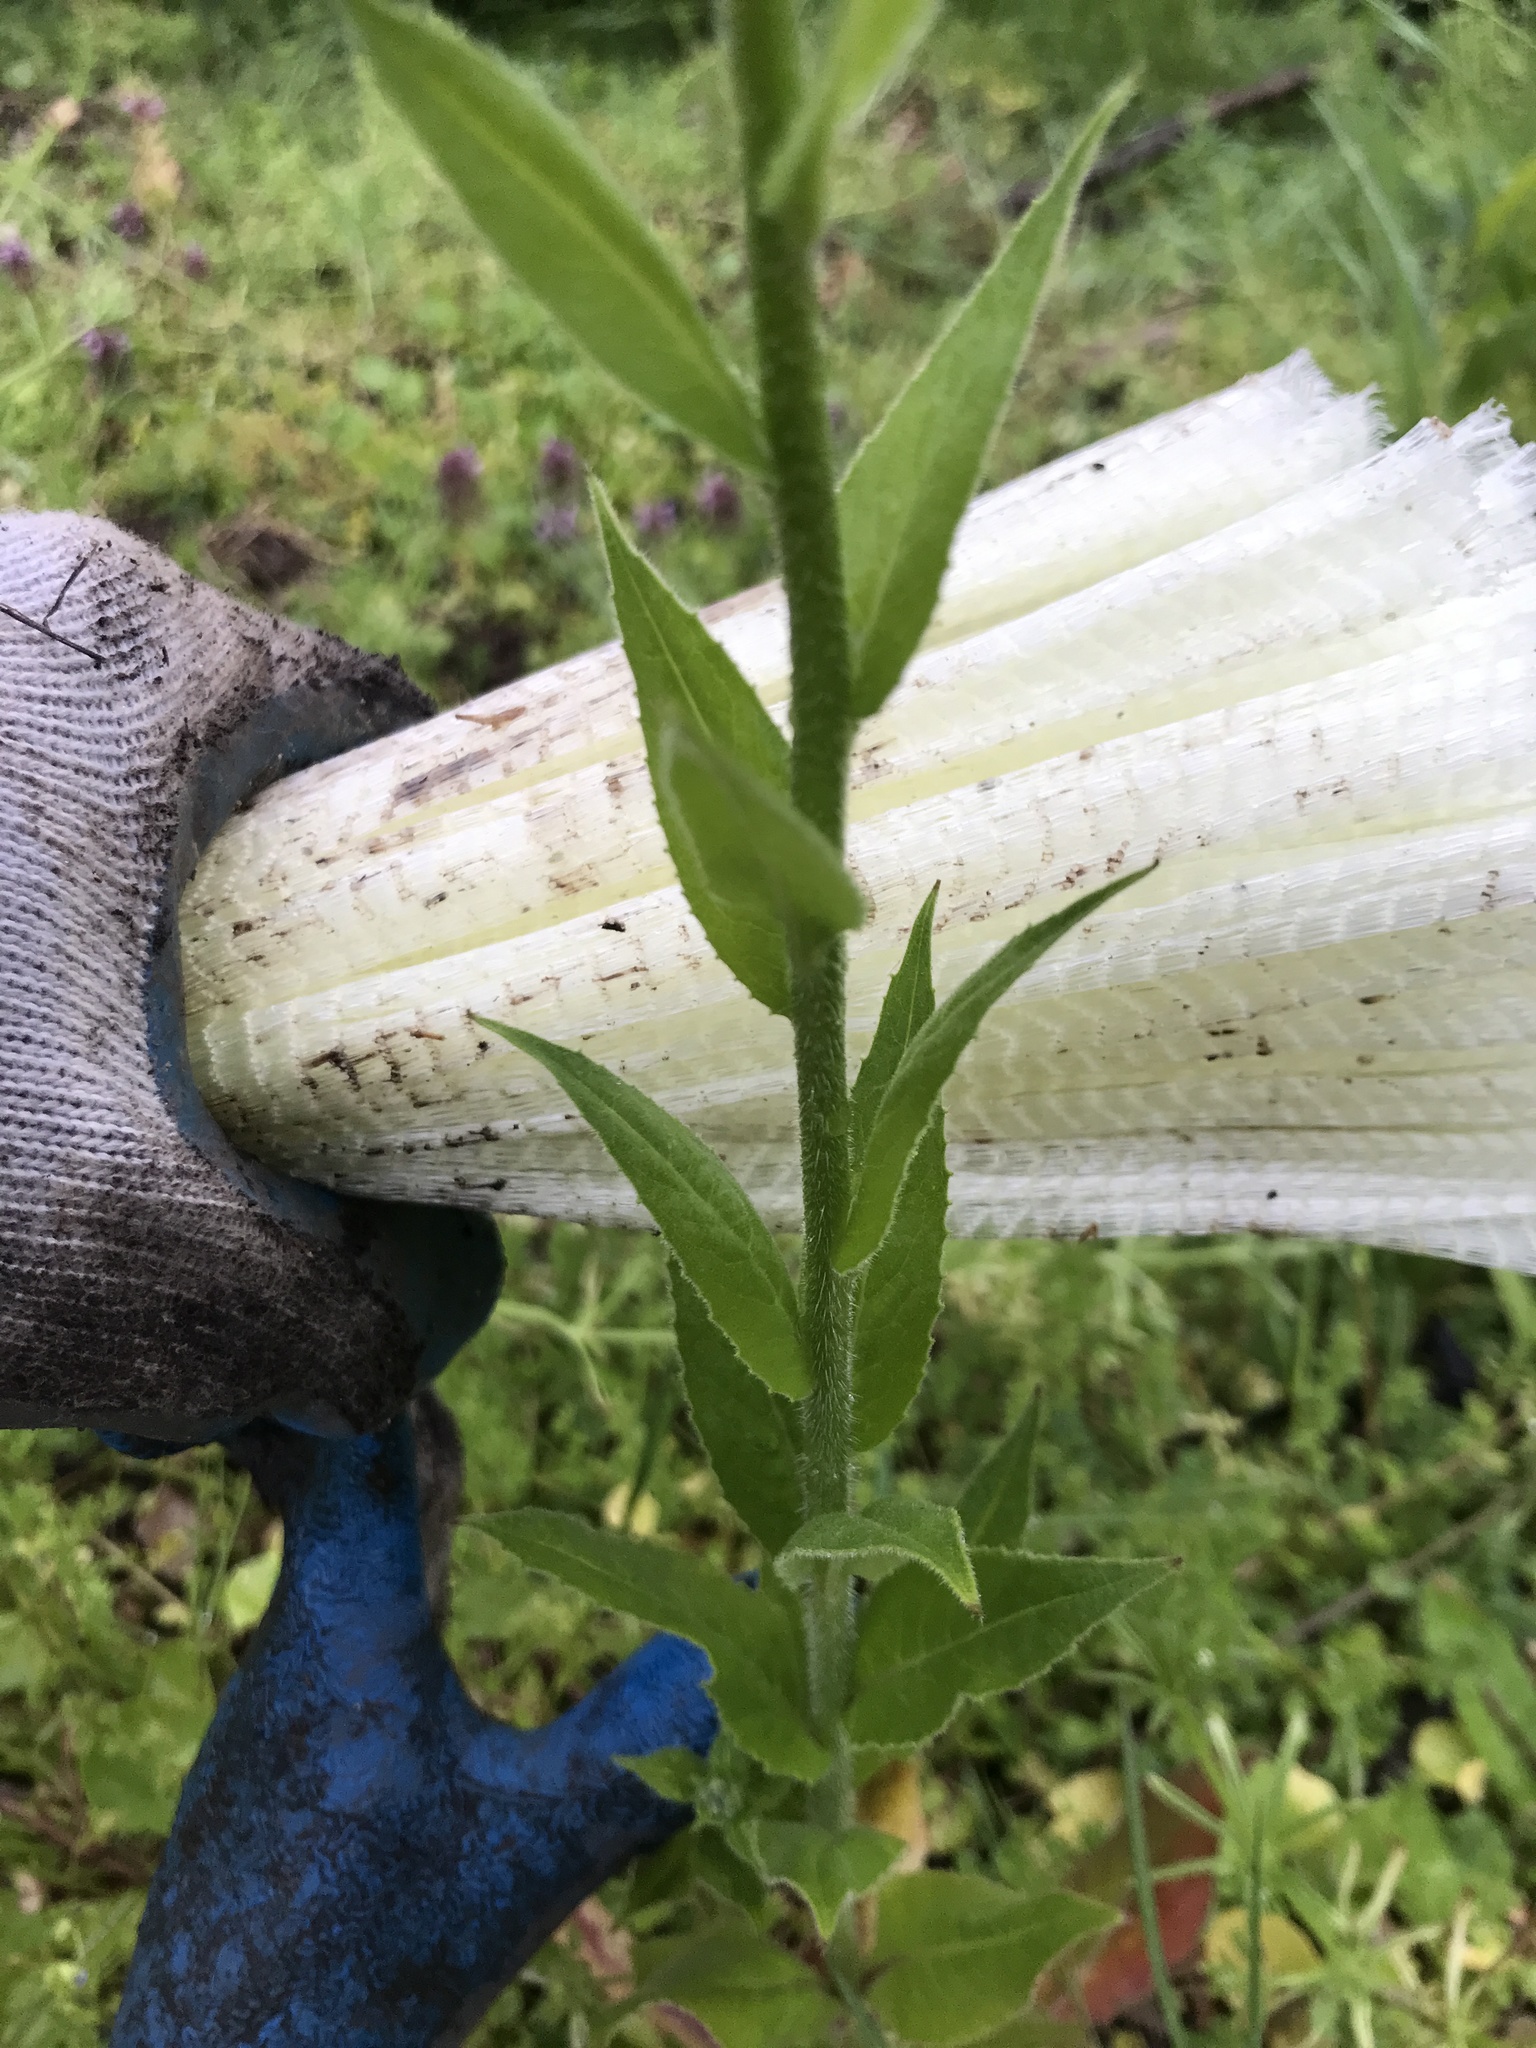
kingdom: Plantae
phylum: Tracheophyta
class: Magnoliopsida
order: Brassicales
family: Brassicaceae
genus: Hesperis
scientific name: Hesperis matronalis
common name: Dame's-violet
